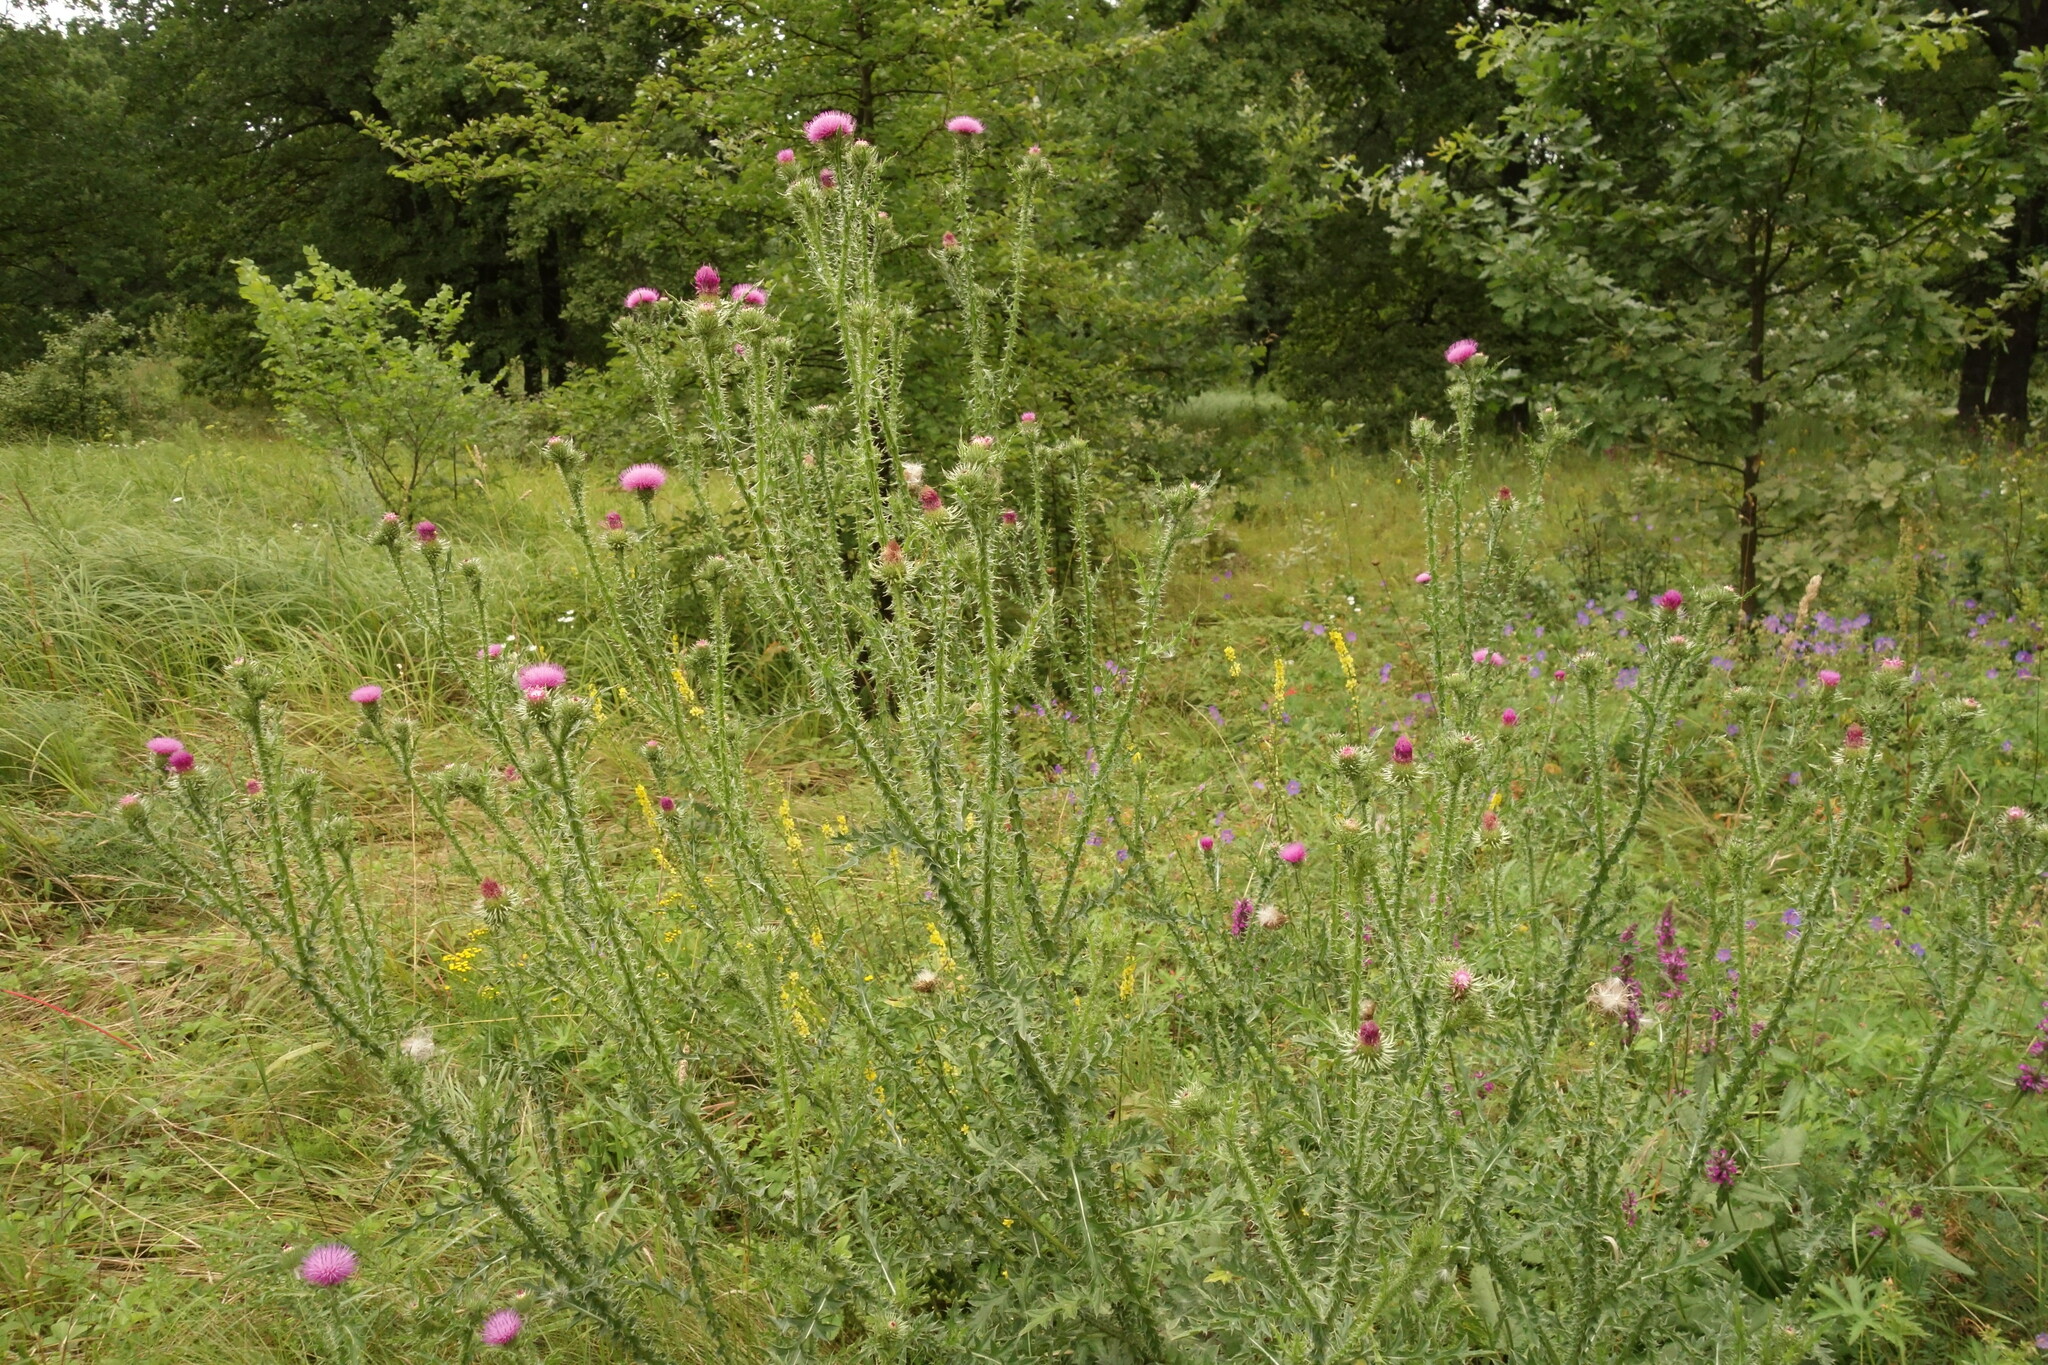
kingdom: Plantae
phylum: Tracheophyta
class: Magnoliopsida
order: Asterales
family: Asteraceae
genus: Carduus
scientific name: Carduus acanthoides
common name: Plumeless thistle
